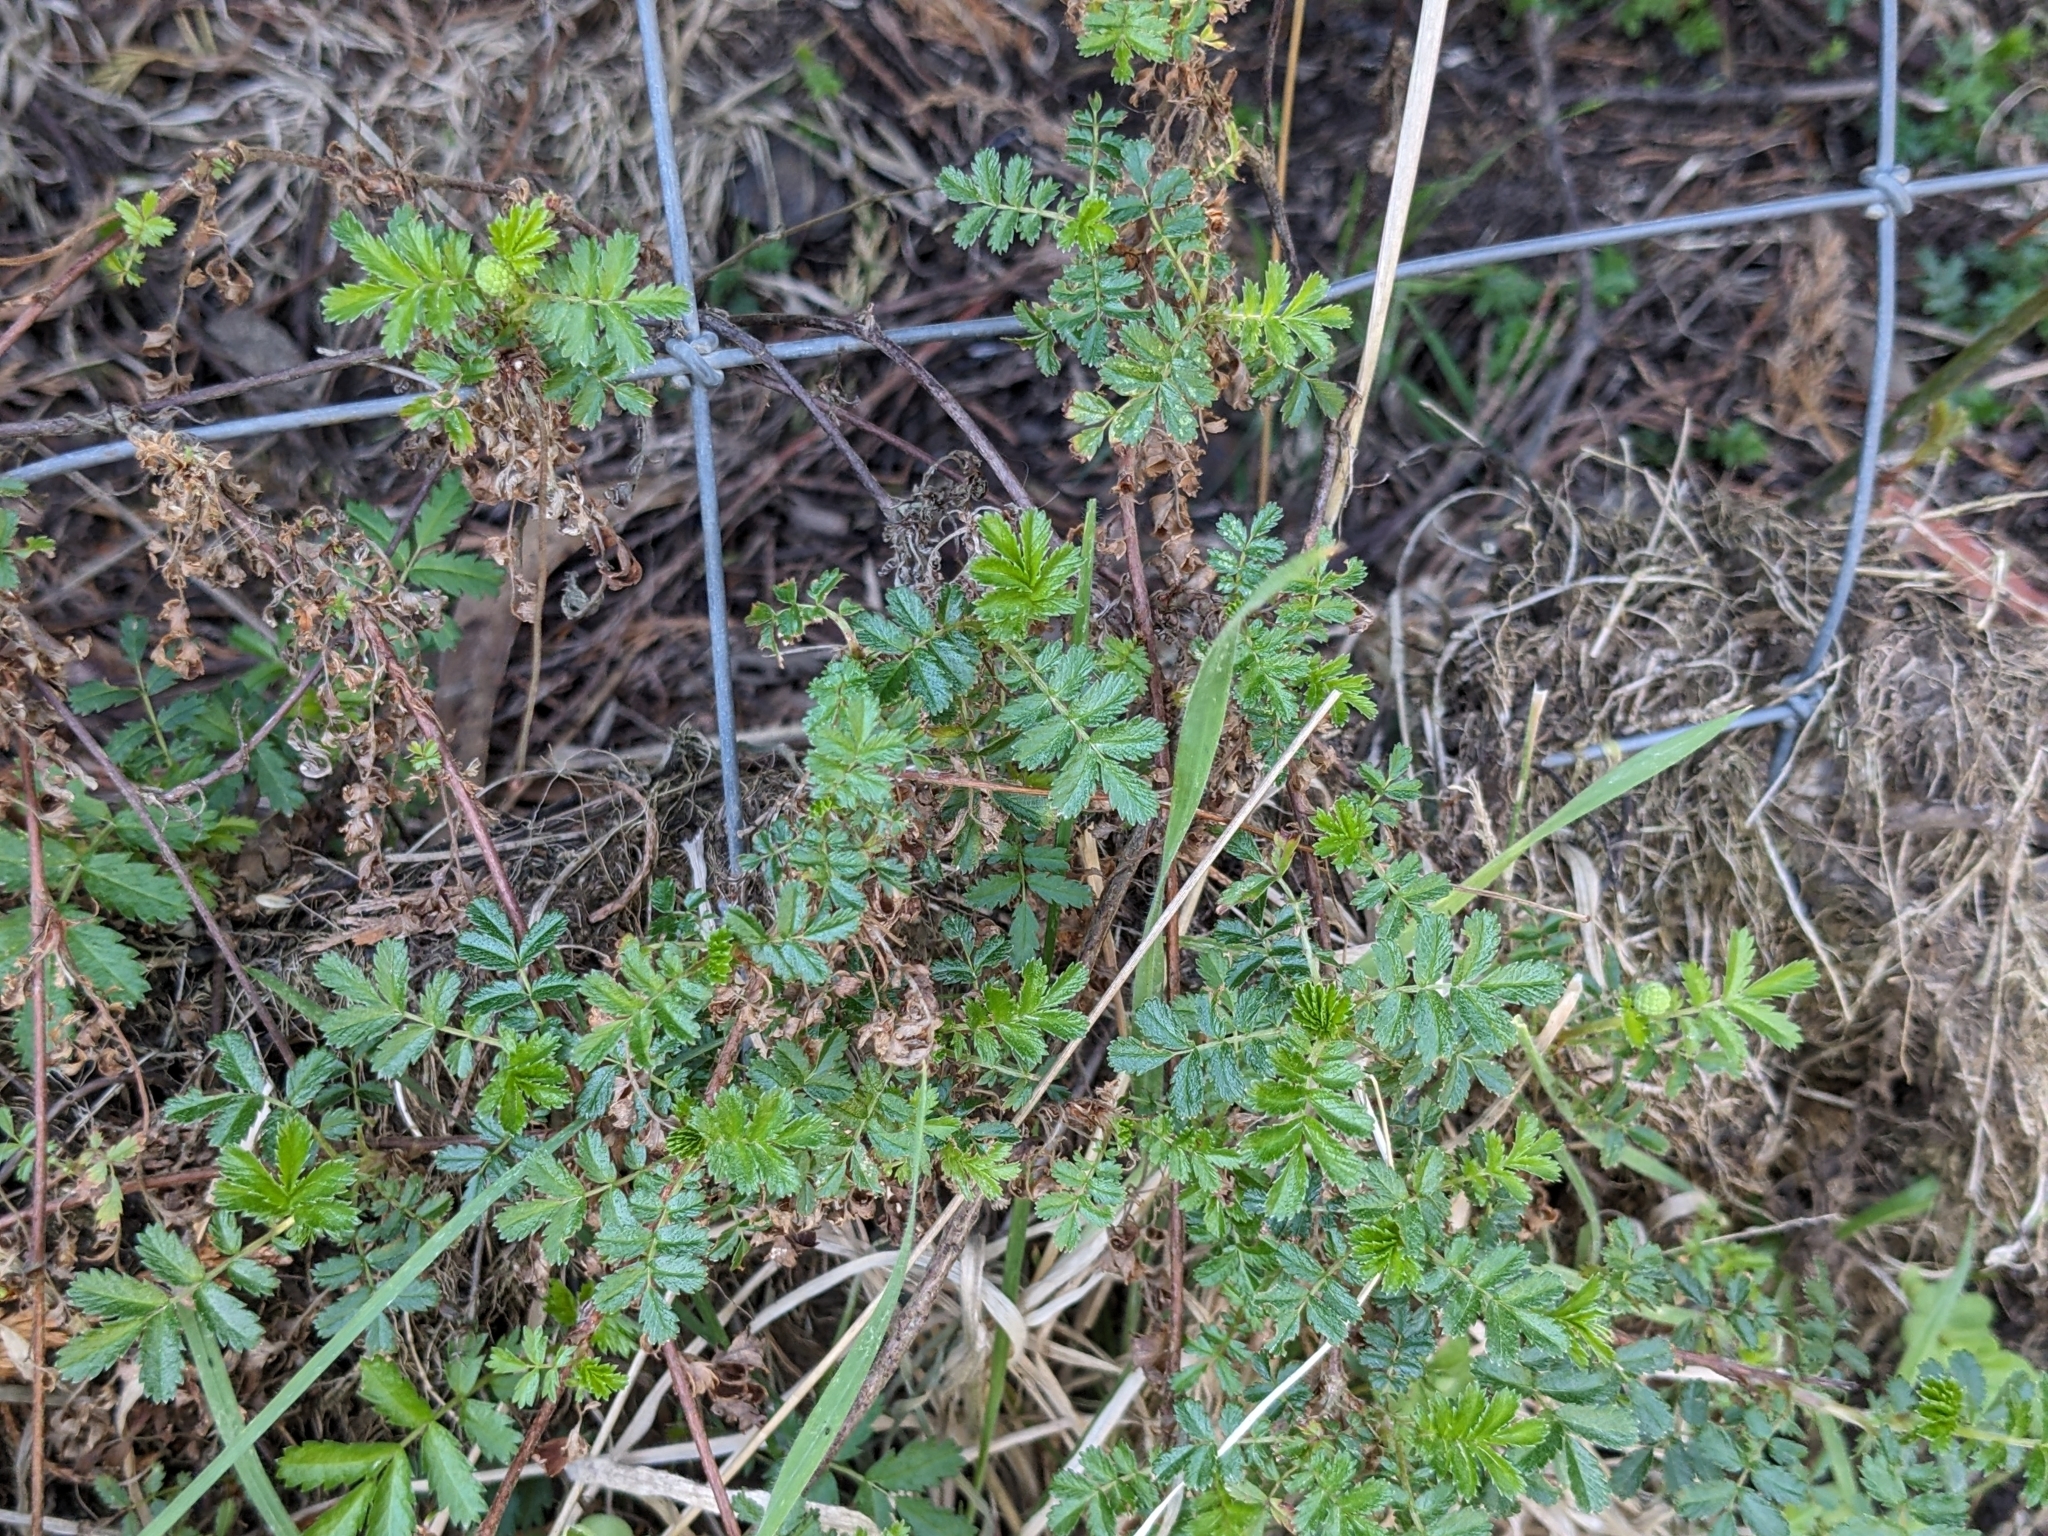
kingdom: Plantae
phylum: Tracheophyta
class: Magnoliopsida
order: Rosales
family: Rosaceae
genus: Acaena
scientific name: Acaena novae-zelandiae
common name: Pirri-pirri-bur
